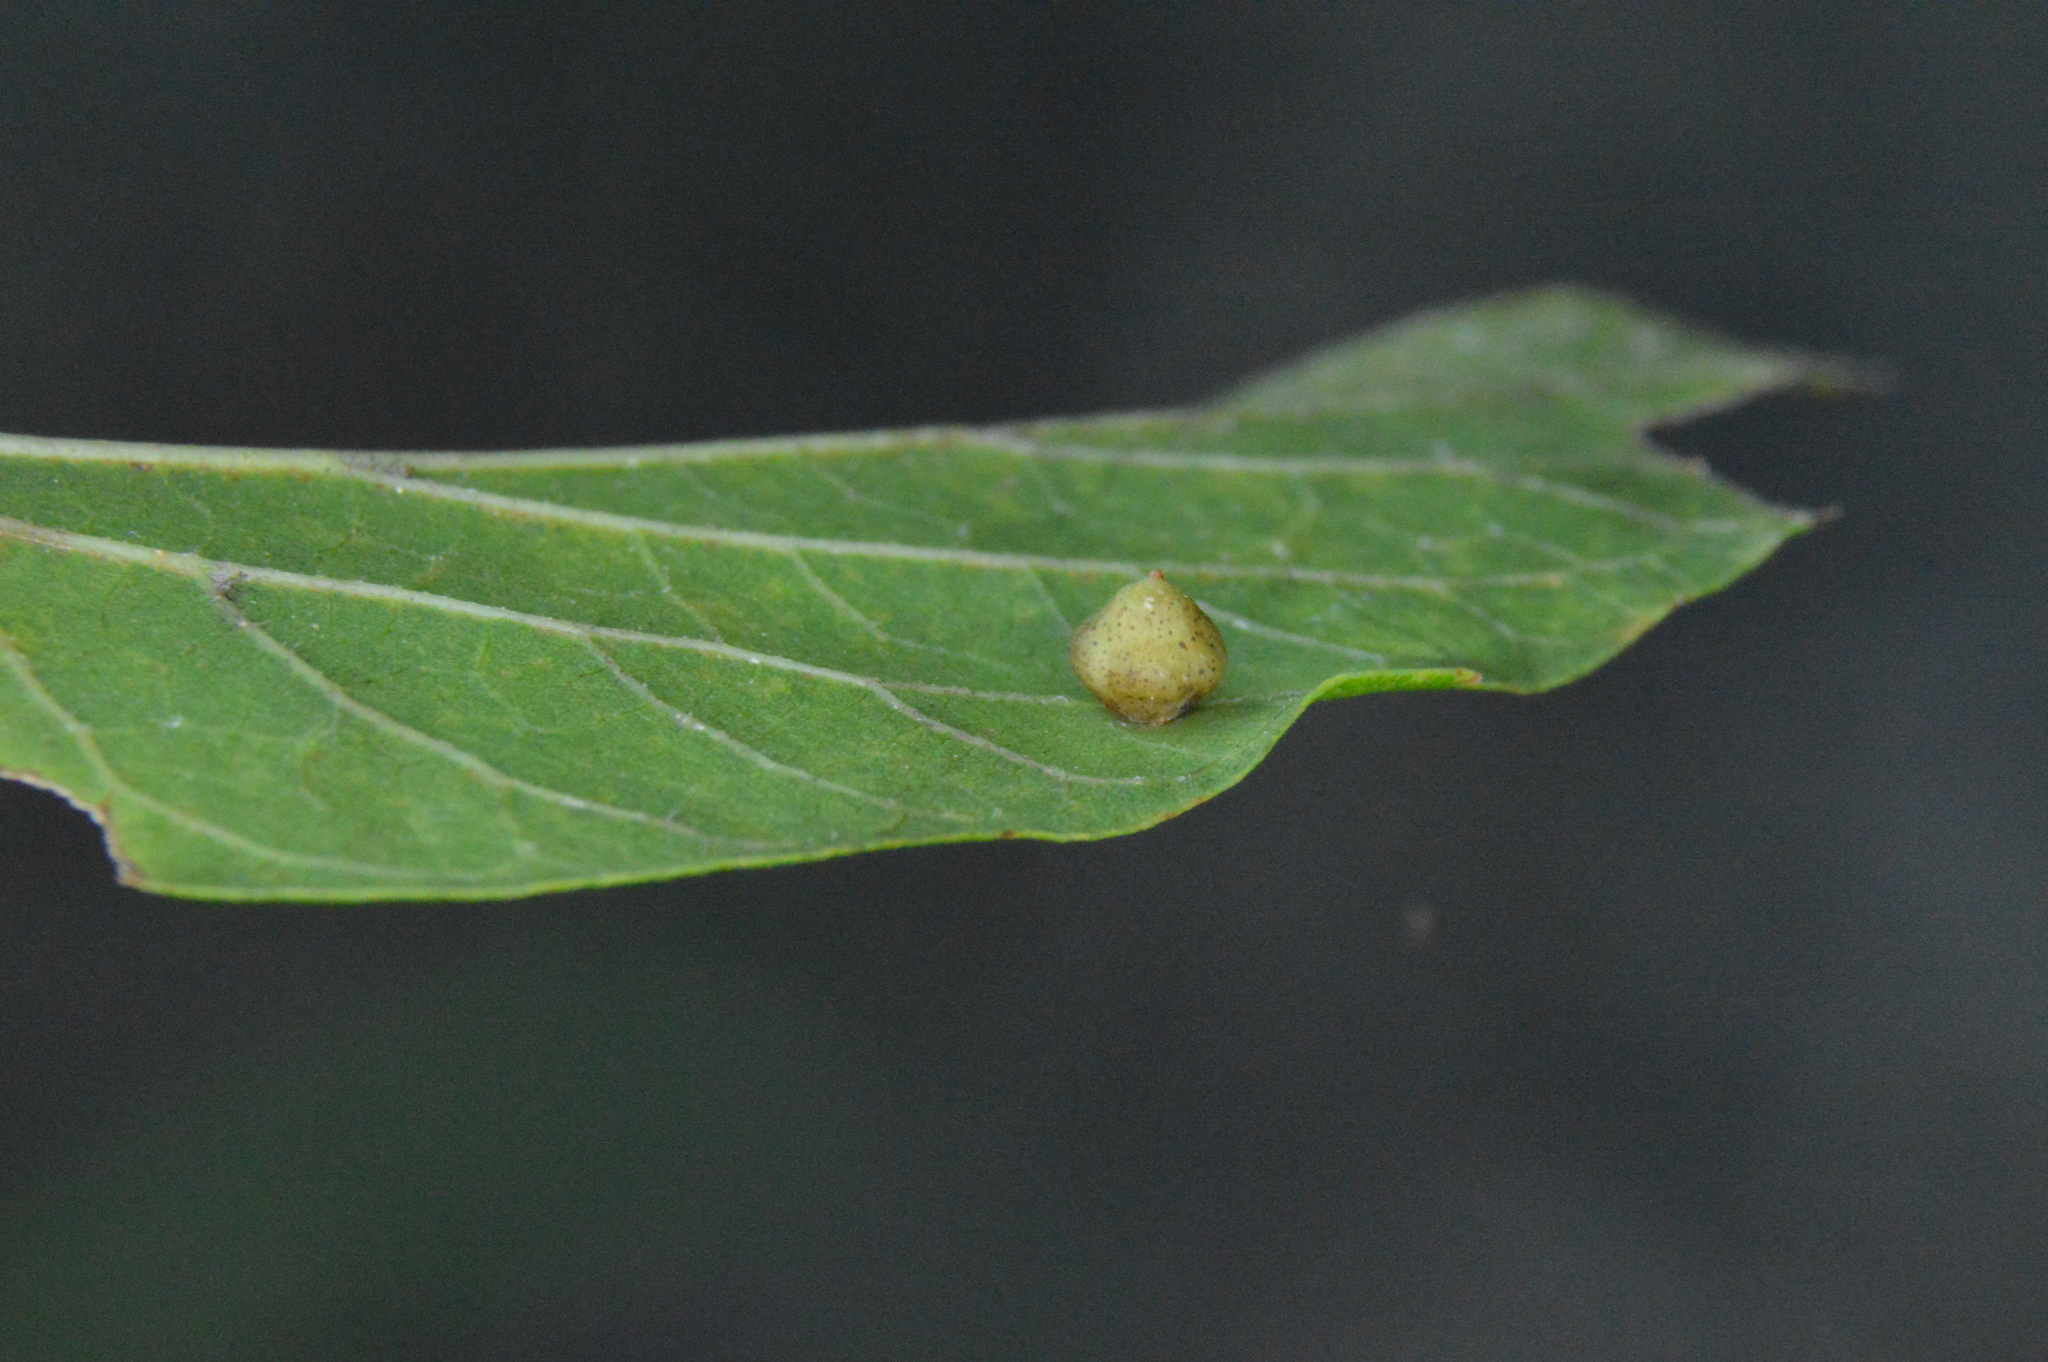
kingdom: Animalia
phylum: Arthropoda
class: Insecta
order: Diptera
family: Cecidomyiidae
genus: Celticecis
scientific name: Celticecis globosa
